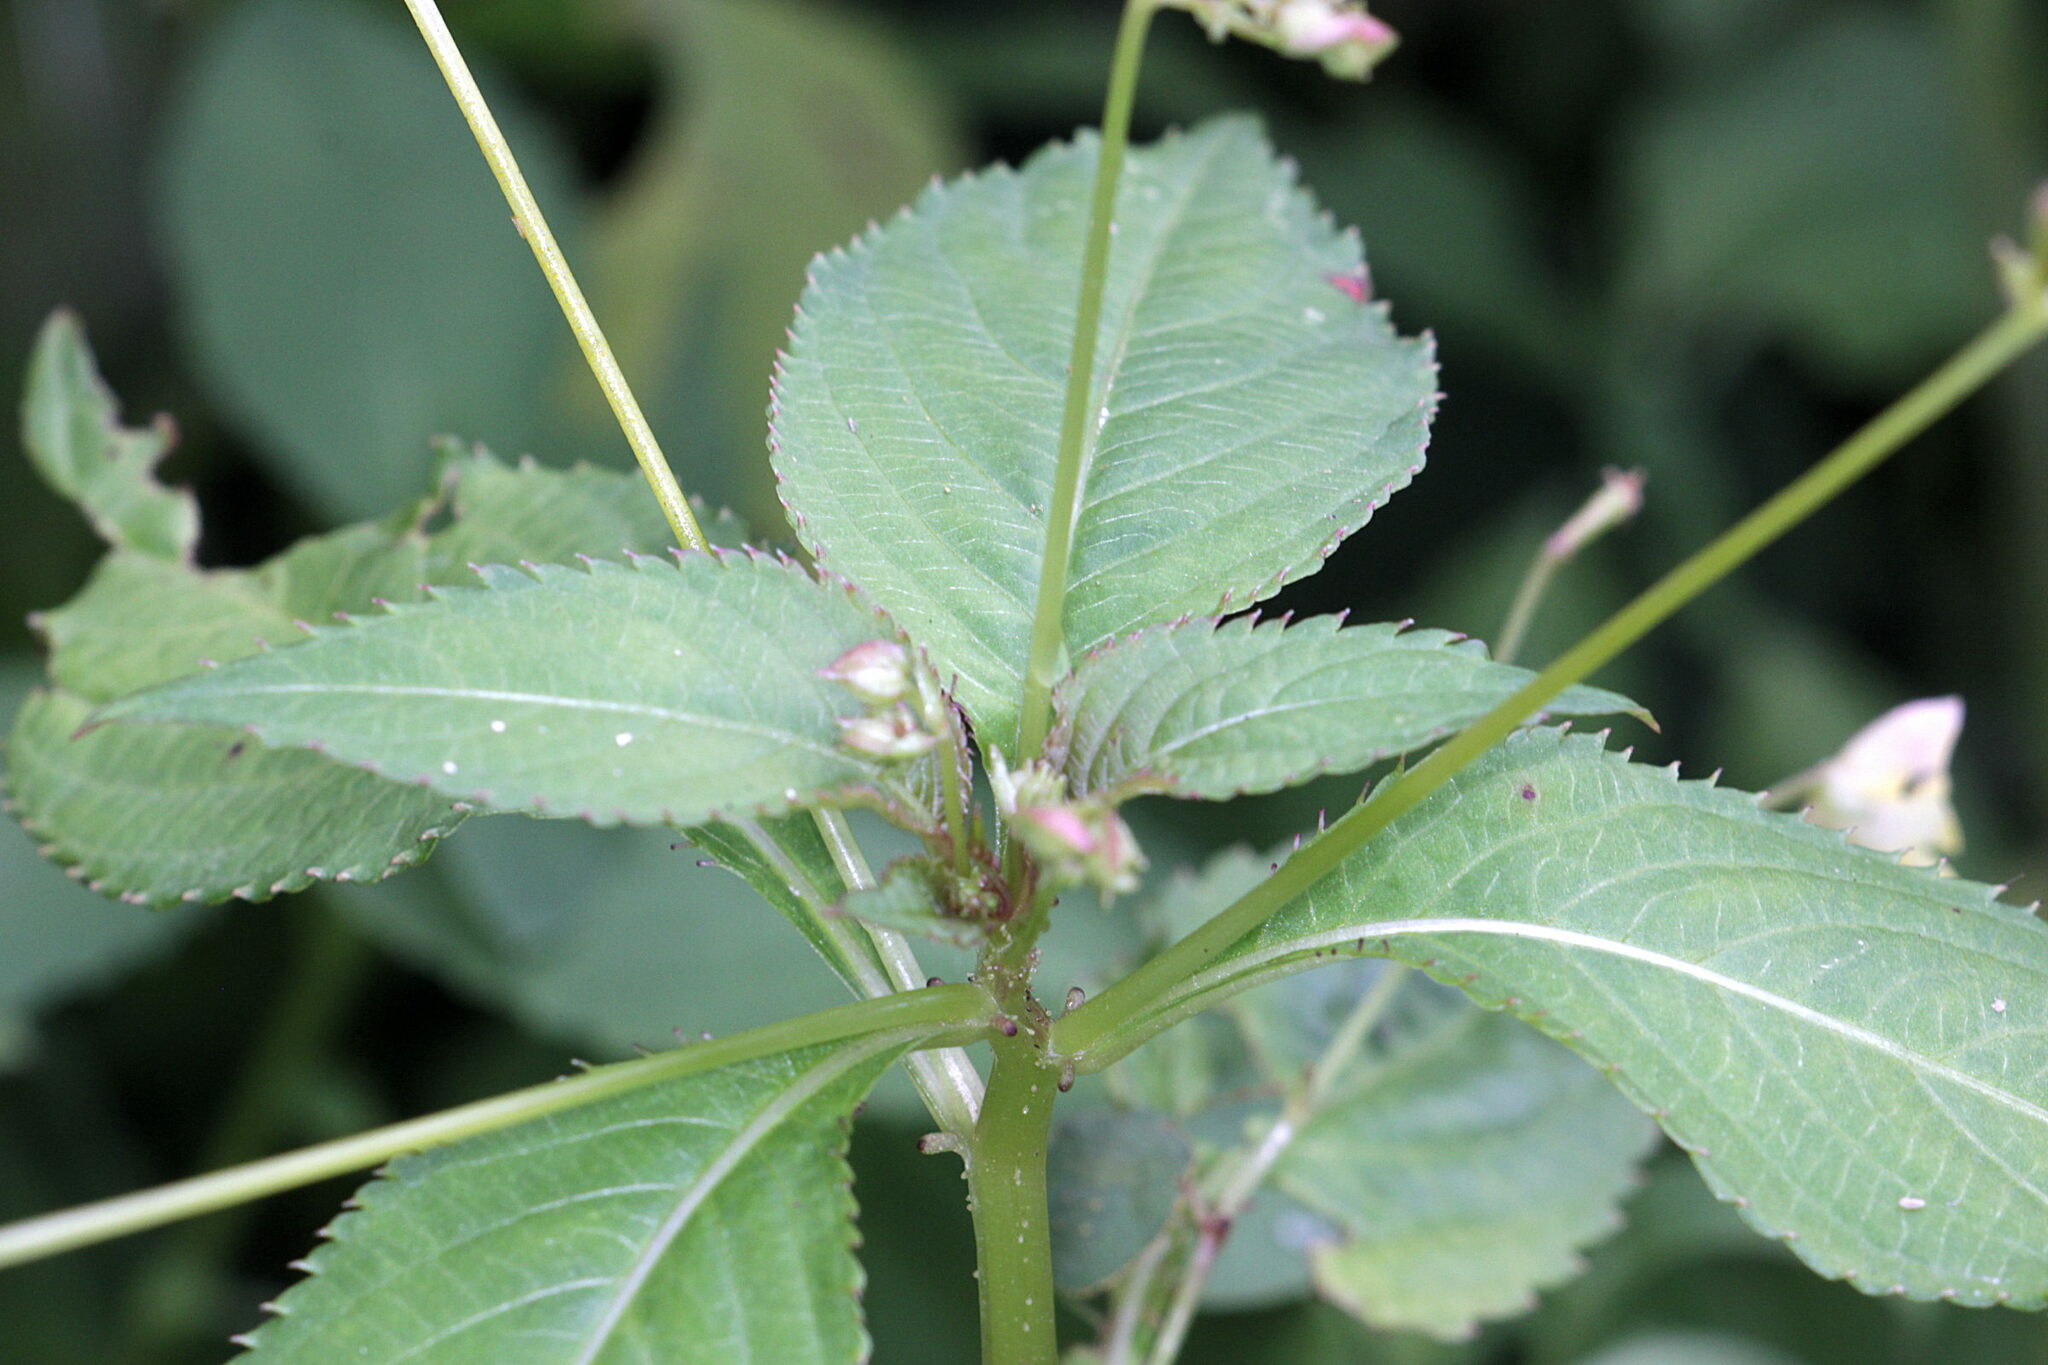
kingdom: Plantae
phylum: Tracheophyta
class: Magnoliopsida
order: Ericales
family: Balsaminaceae
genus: Impatiens
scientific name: Impatiens parviflora
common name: Small balsam
